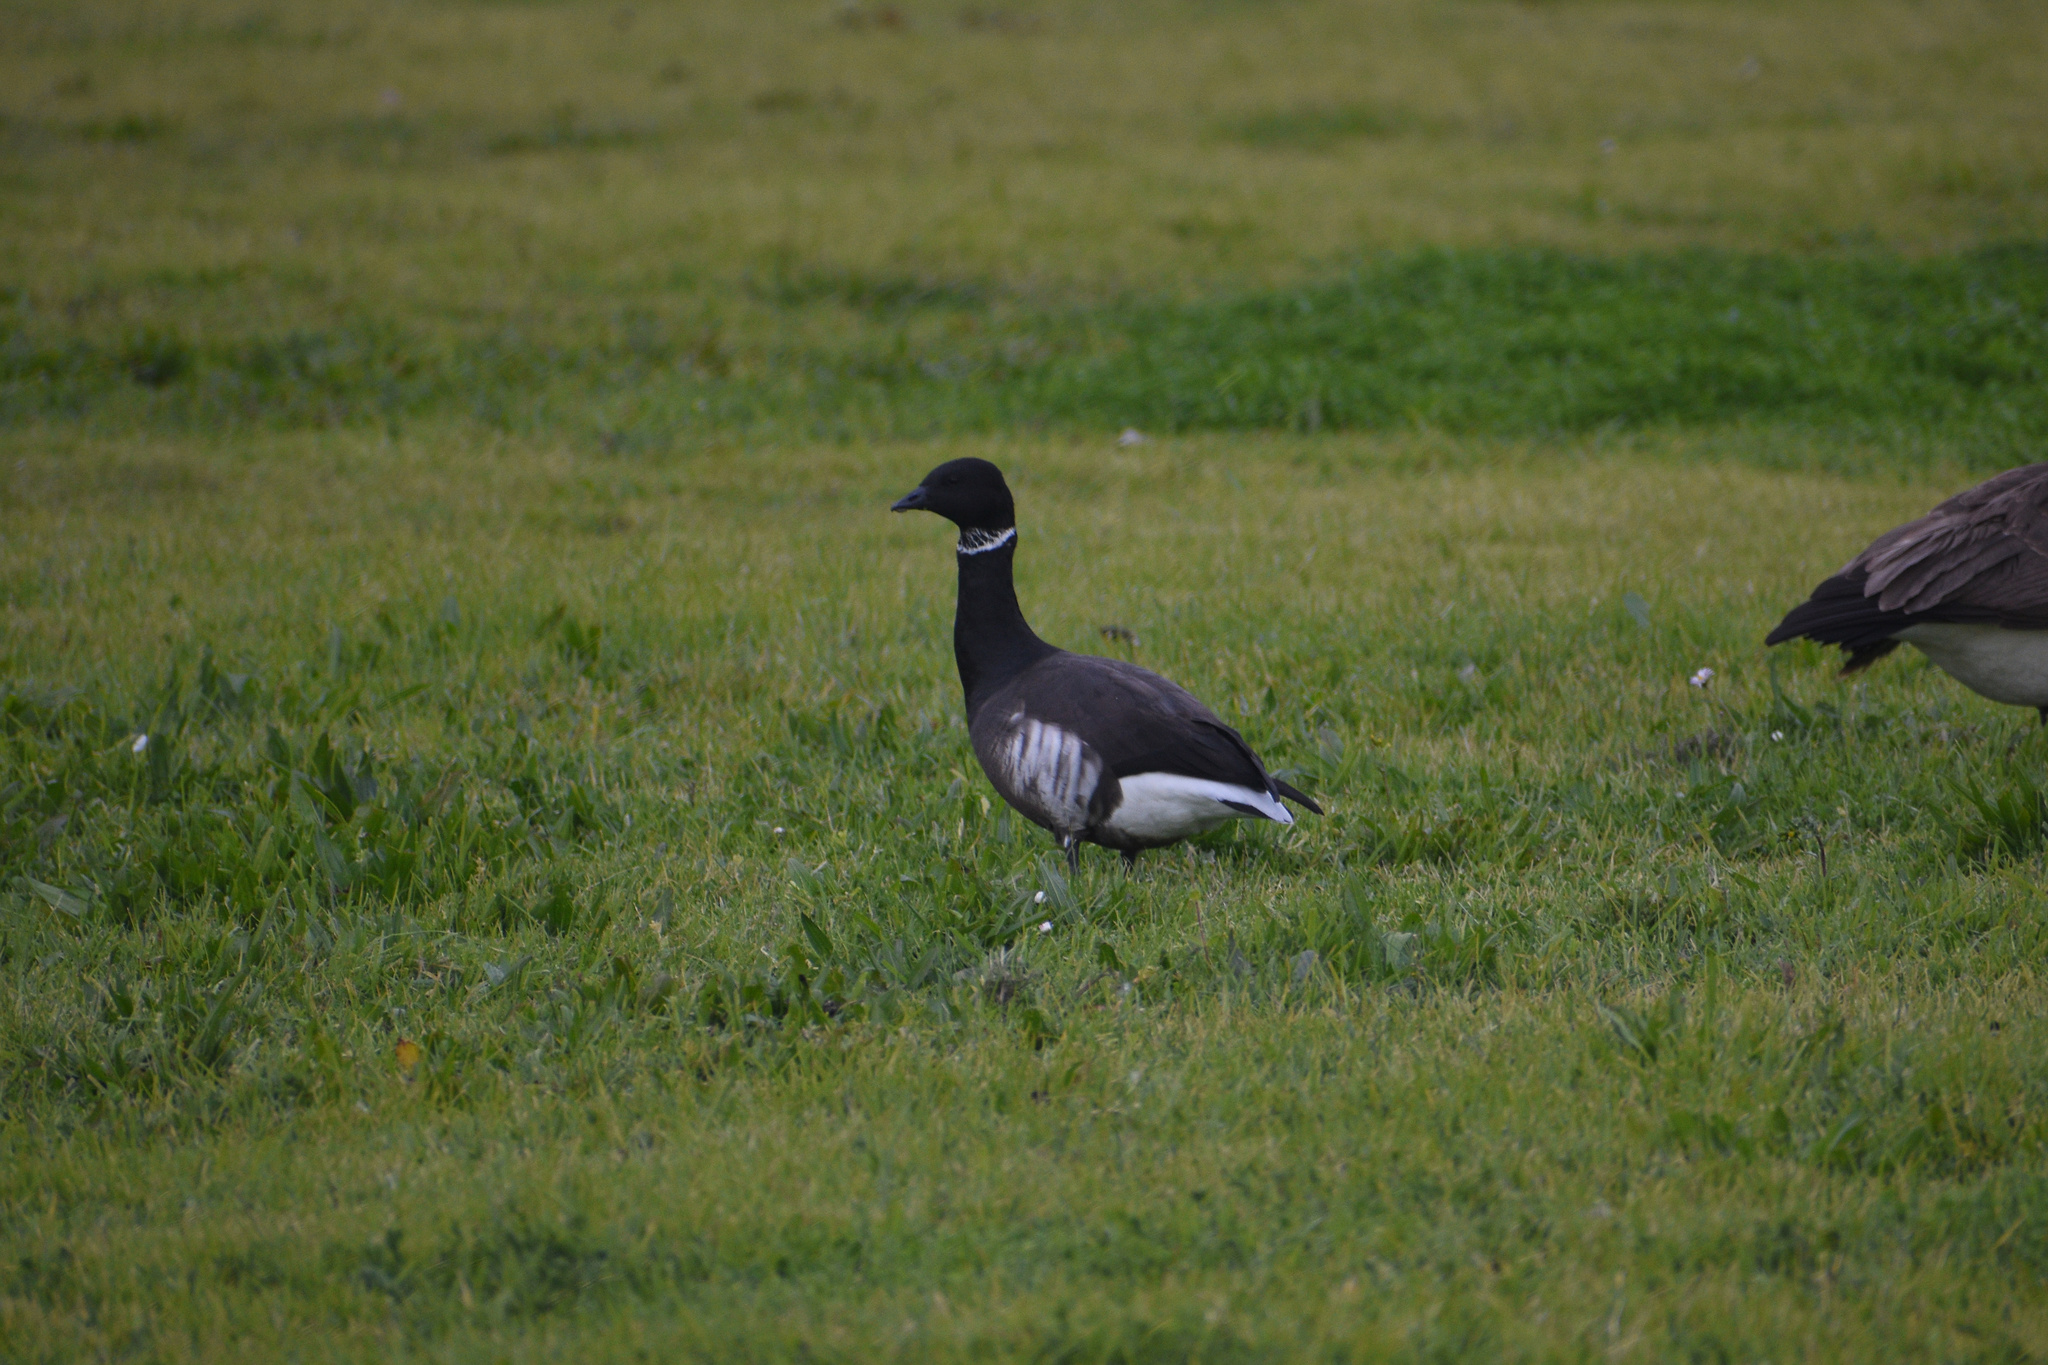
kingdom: Animalia
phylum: Chordata
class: Aves
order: Anseriformes
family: Anatidae
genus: Branta
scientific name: Branta bernicla
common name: Brant goose
